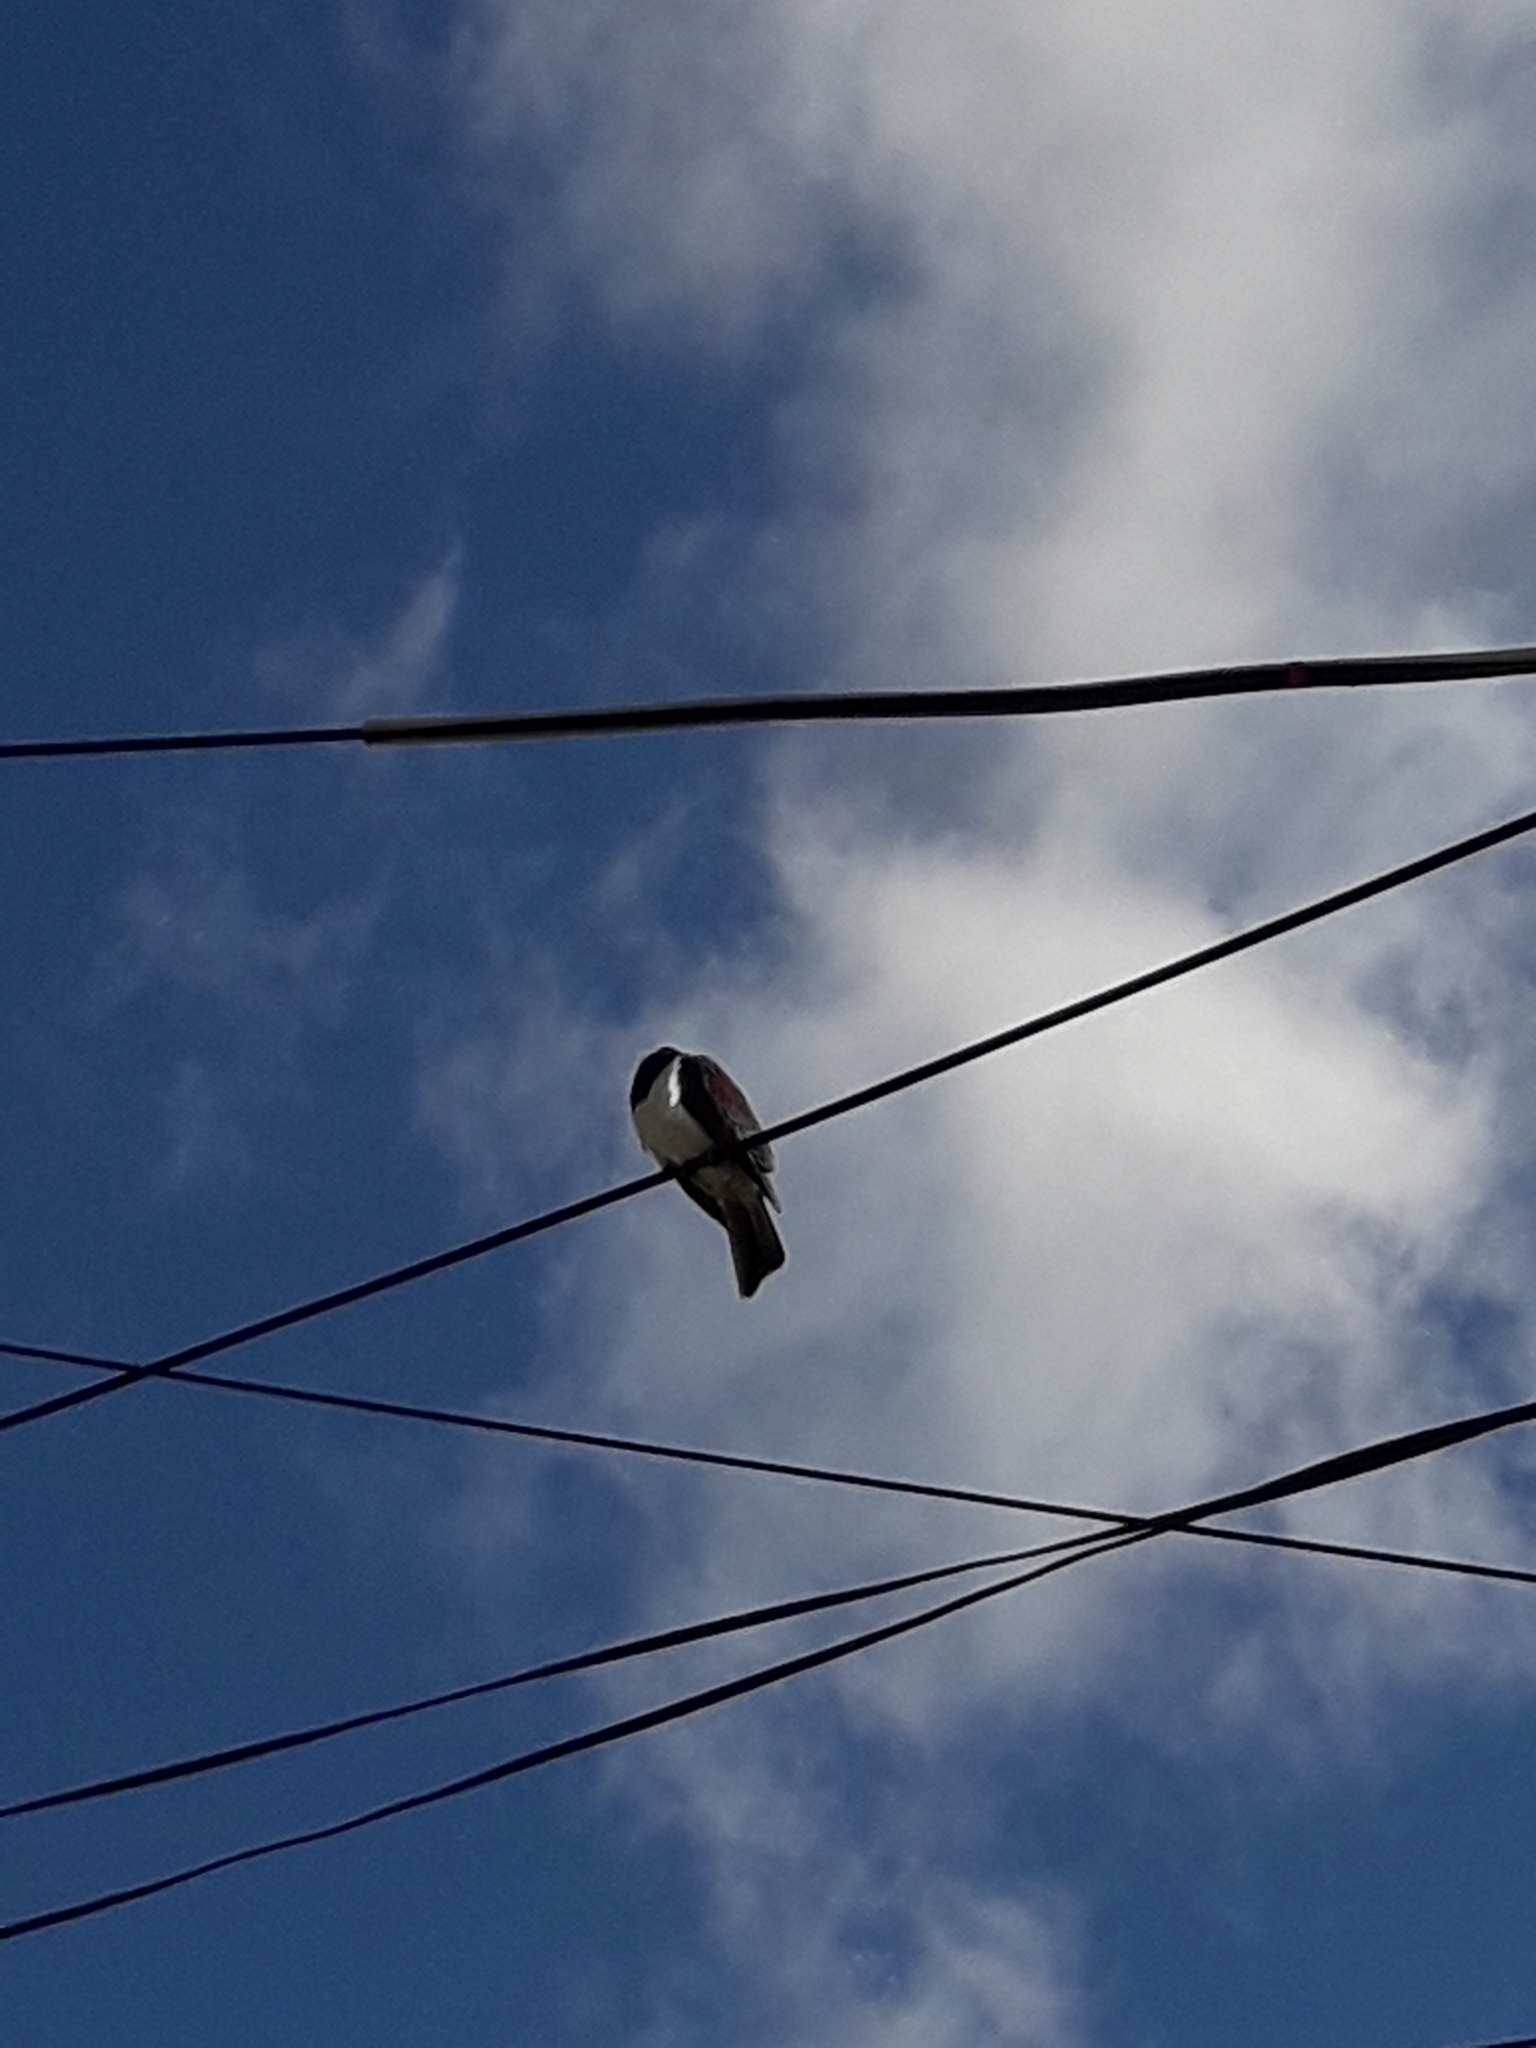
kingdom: Animalia
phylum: Chordata
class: Aves
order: Columbiformes
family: Columbidae
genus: Hemiphaga
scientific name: Hemiphaga novaeseelandiae
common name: New zealand pigeon
